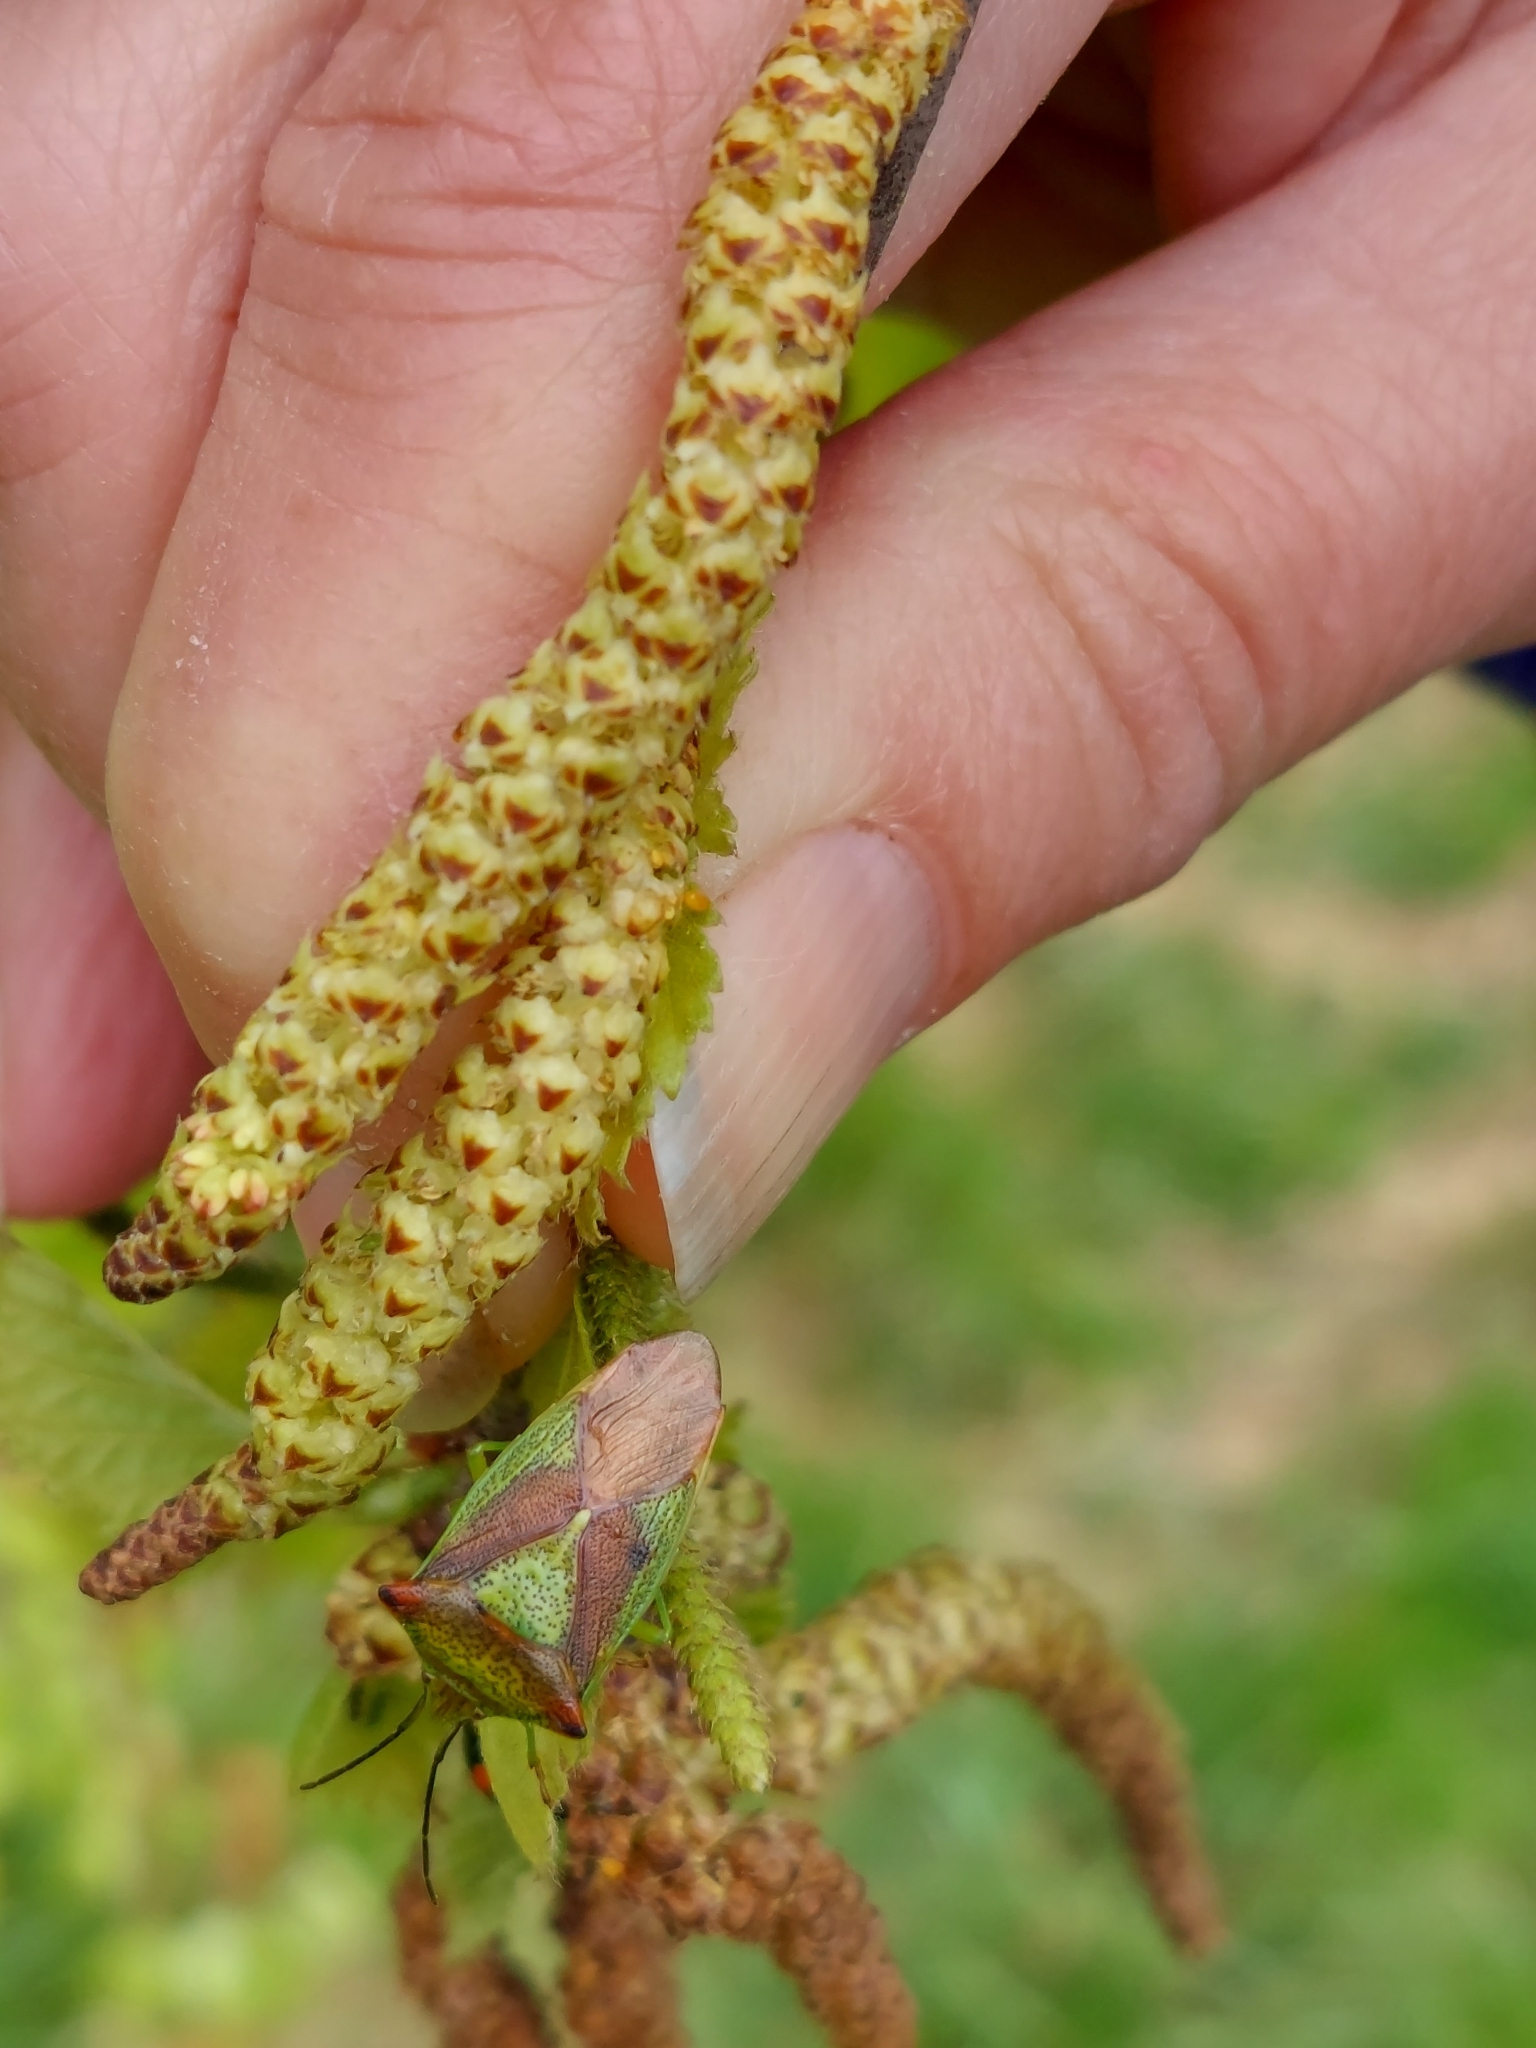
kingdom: Animalia
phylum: Arthropoda
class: Insecta
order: Hemiptera
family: Acanthosomatidae
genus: Acanthosoma
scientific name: Acanthosoma haemorrhoidale
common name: Hawthorn shieldbug
